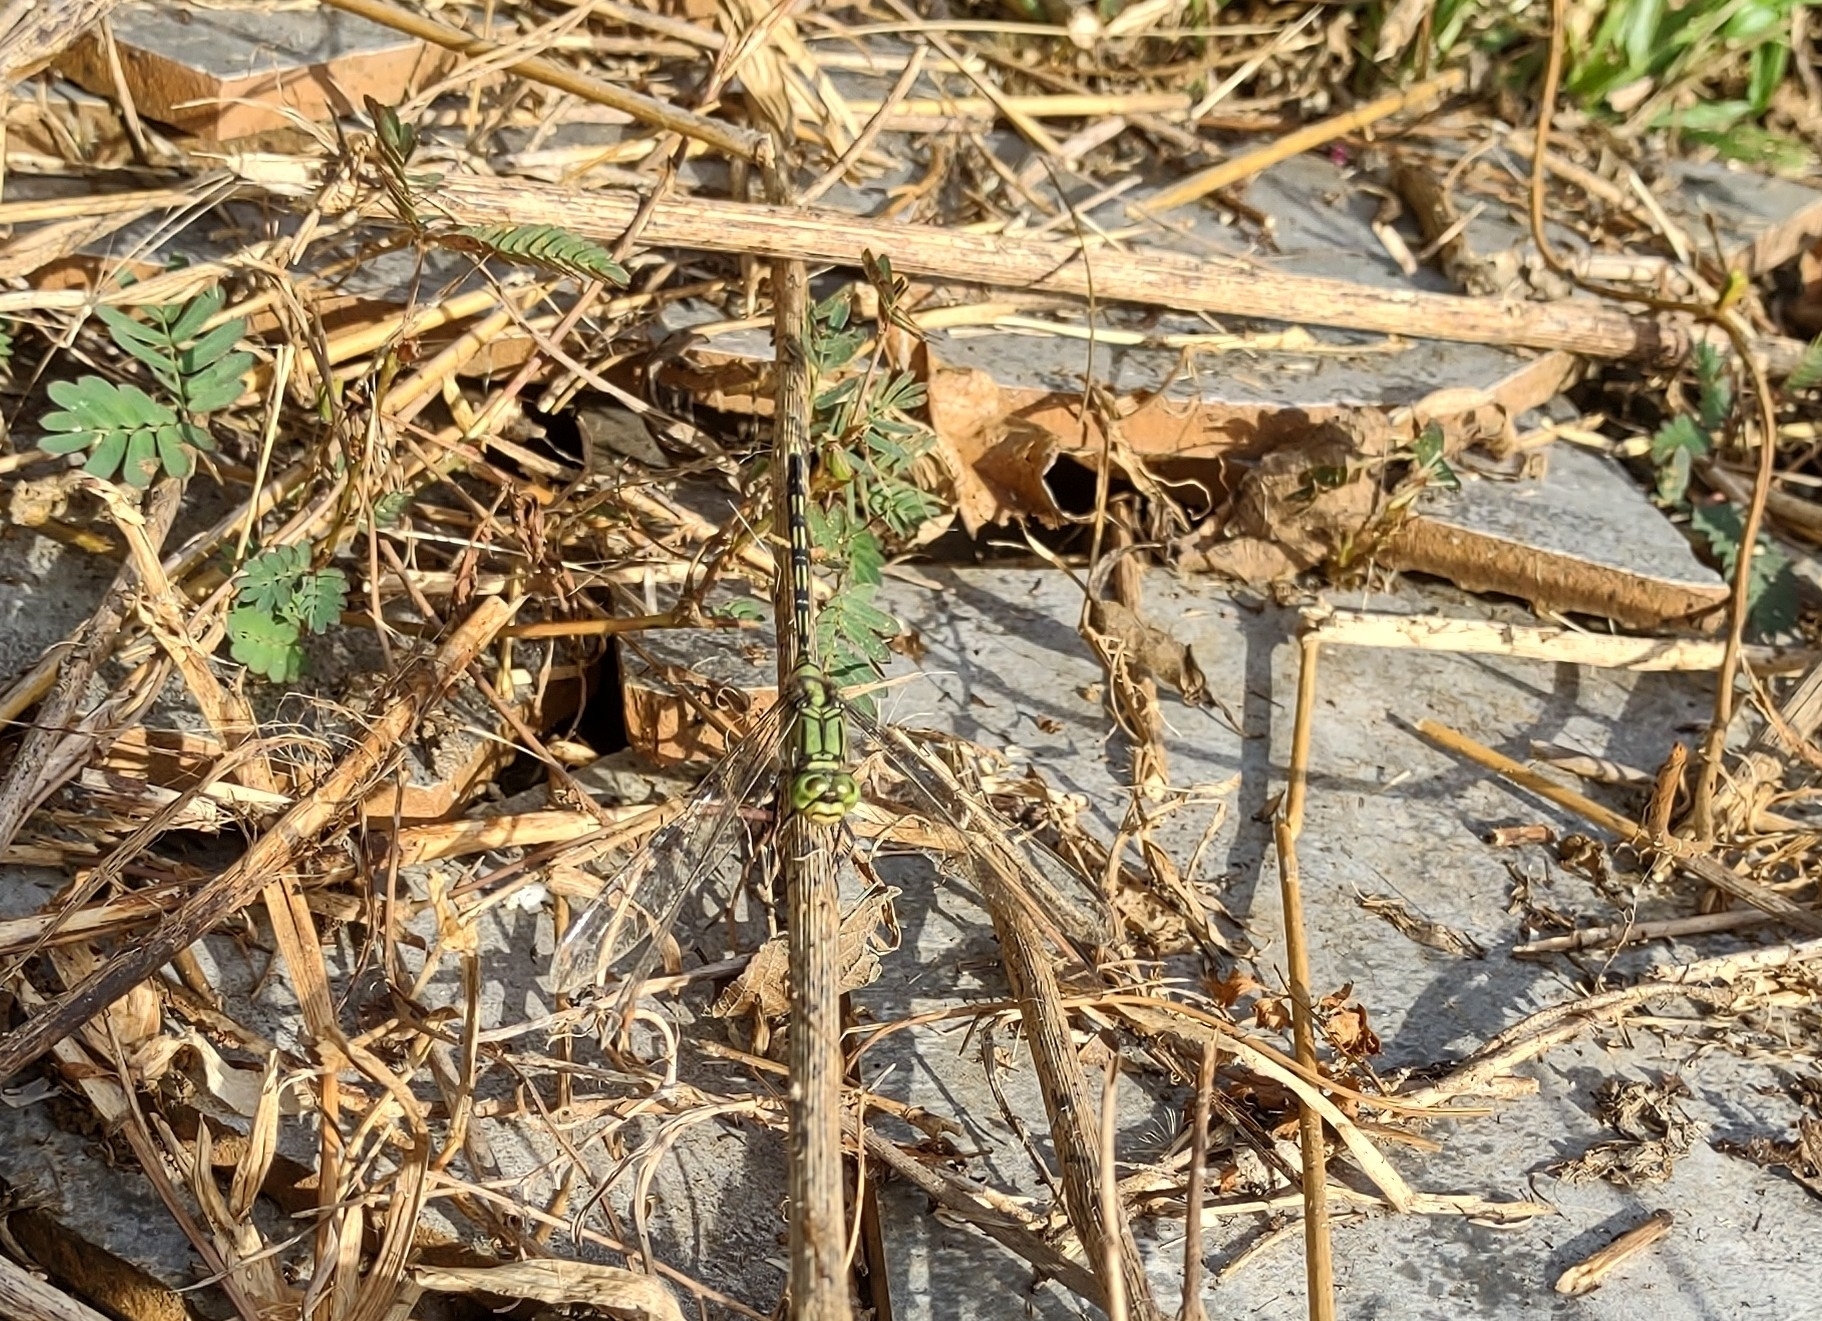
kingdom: Animalia
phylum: Arthropoda
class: Insecta
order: Odonata
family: Libellulidae
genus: Orthetrum
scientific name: Orthetrum serapia
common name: Green skimmer
